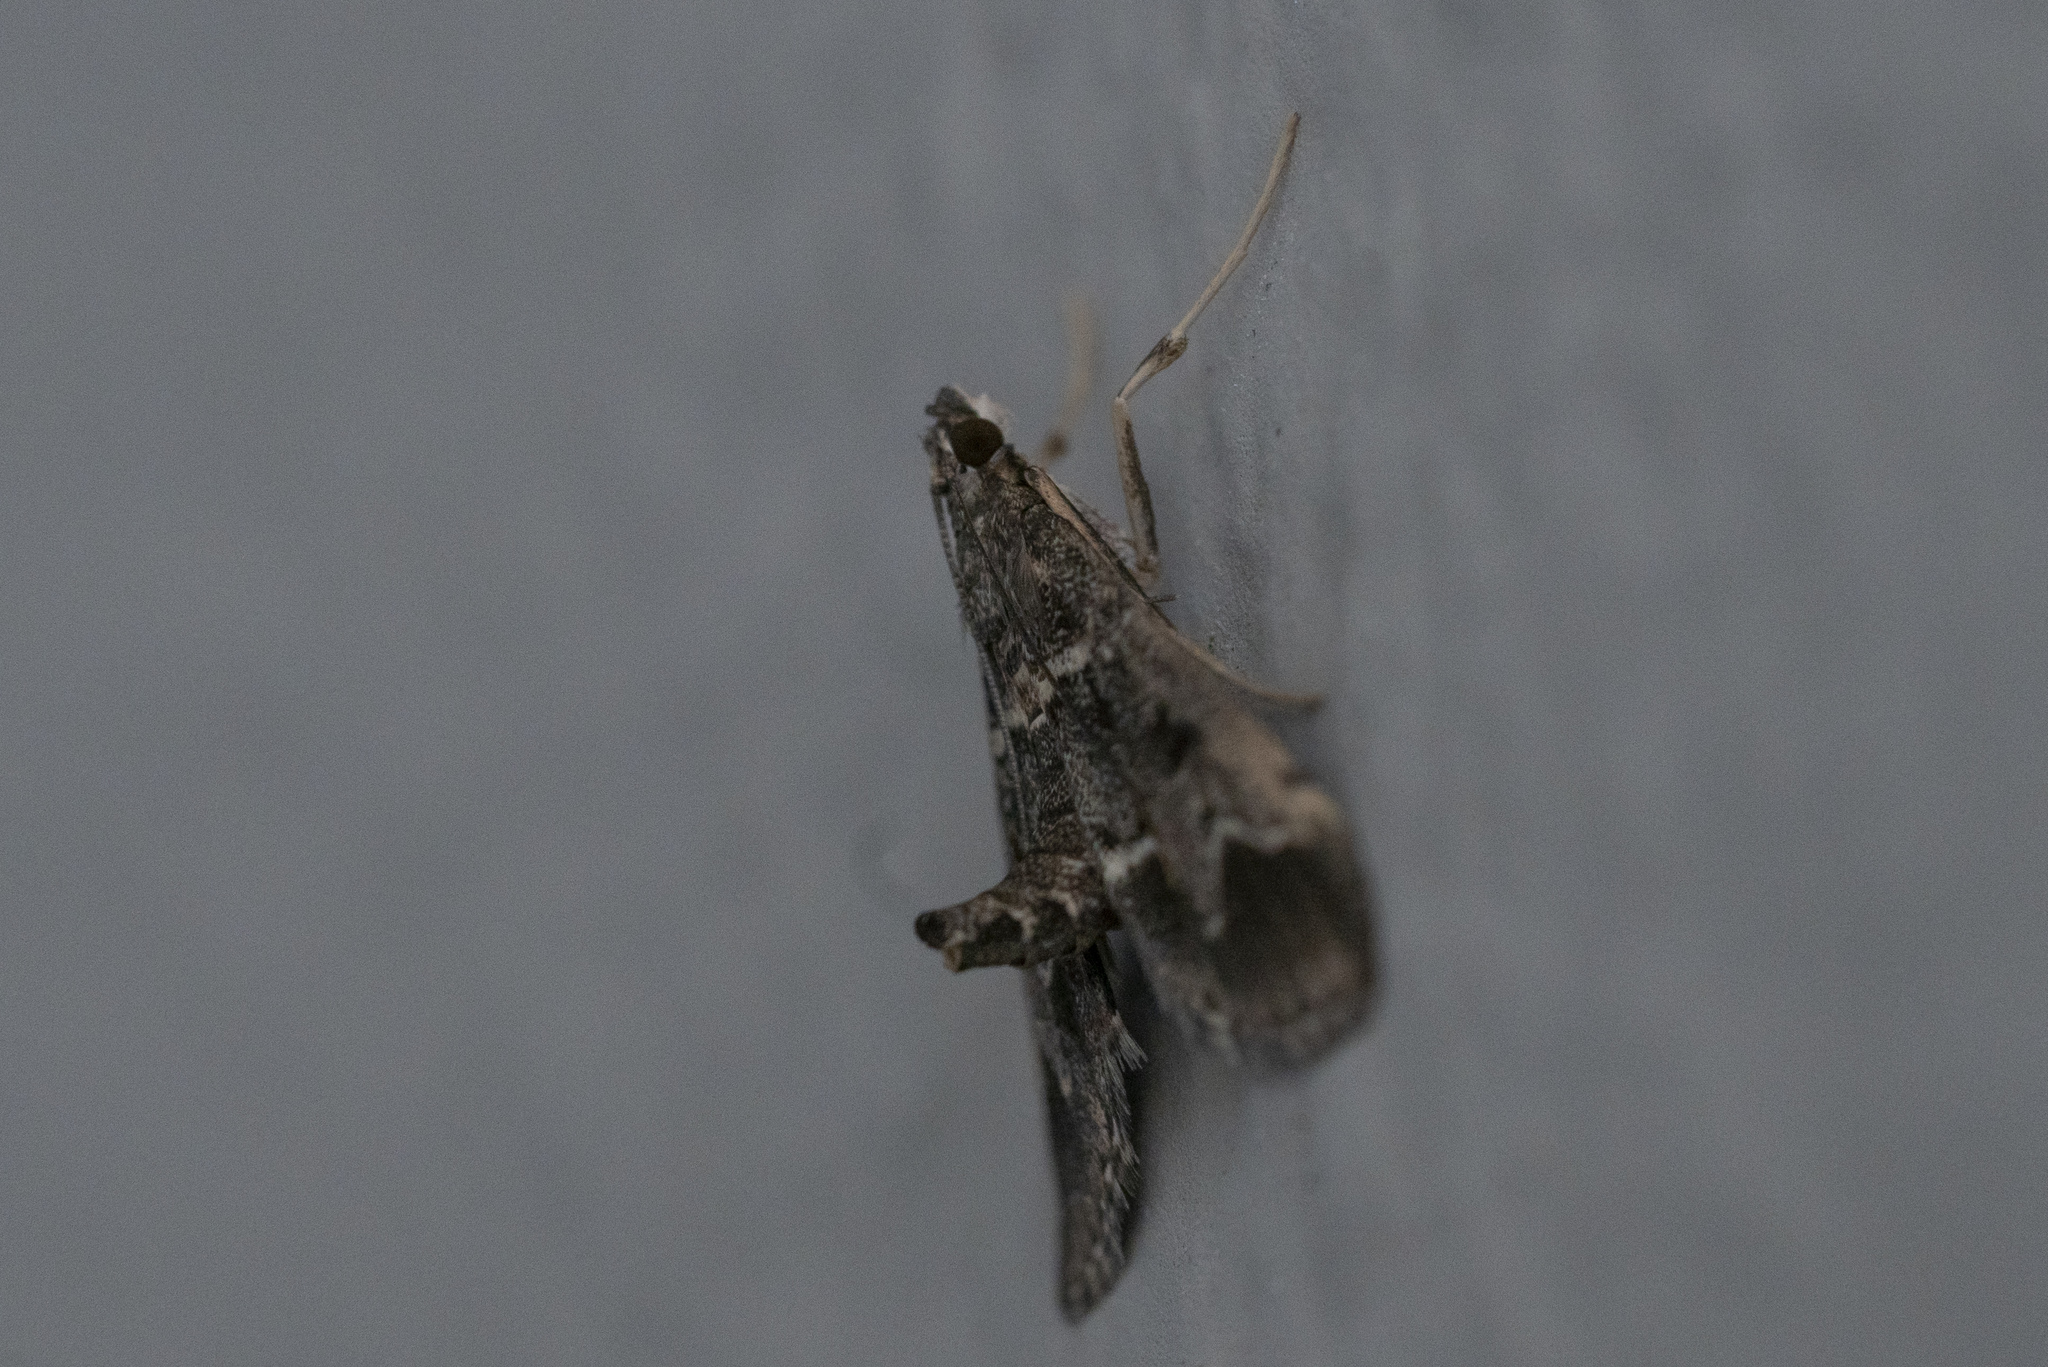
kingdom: Animalia
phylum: Arthropoda
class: Insecta
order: Lepidoptera
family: Crambidae
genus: Duponchelia
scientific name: Duponchelia fovealis
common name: Crambid moth
